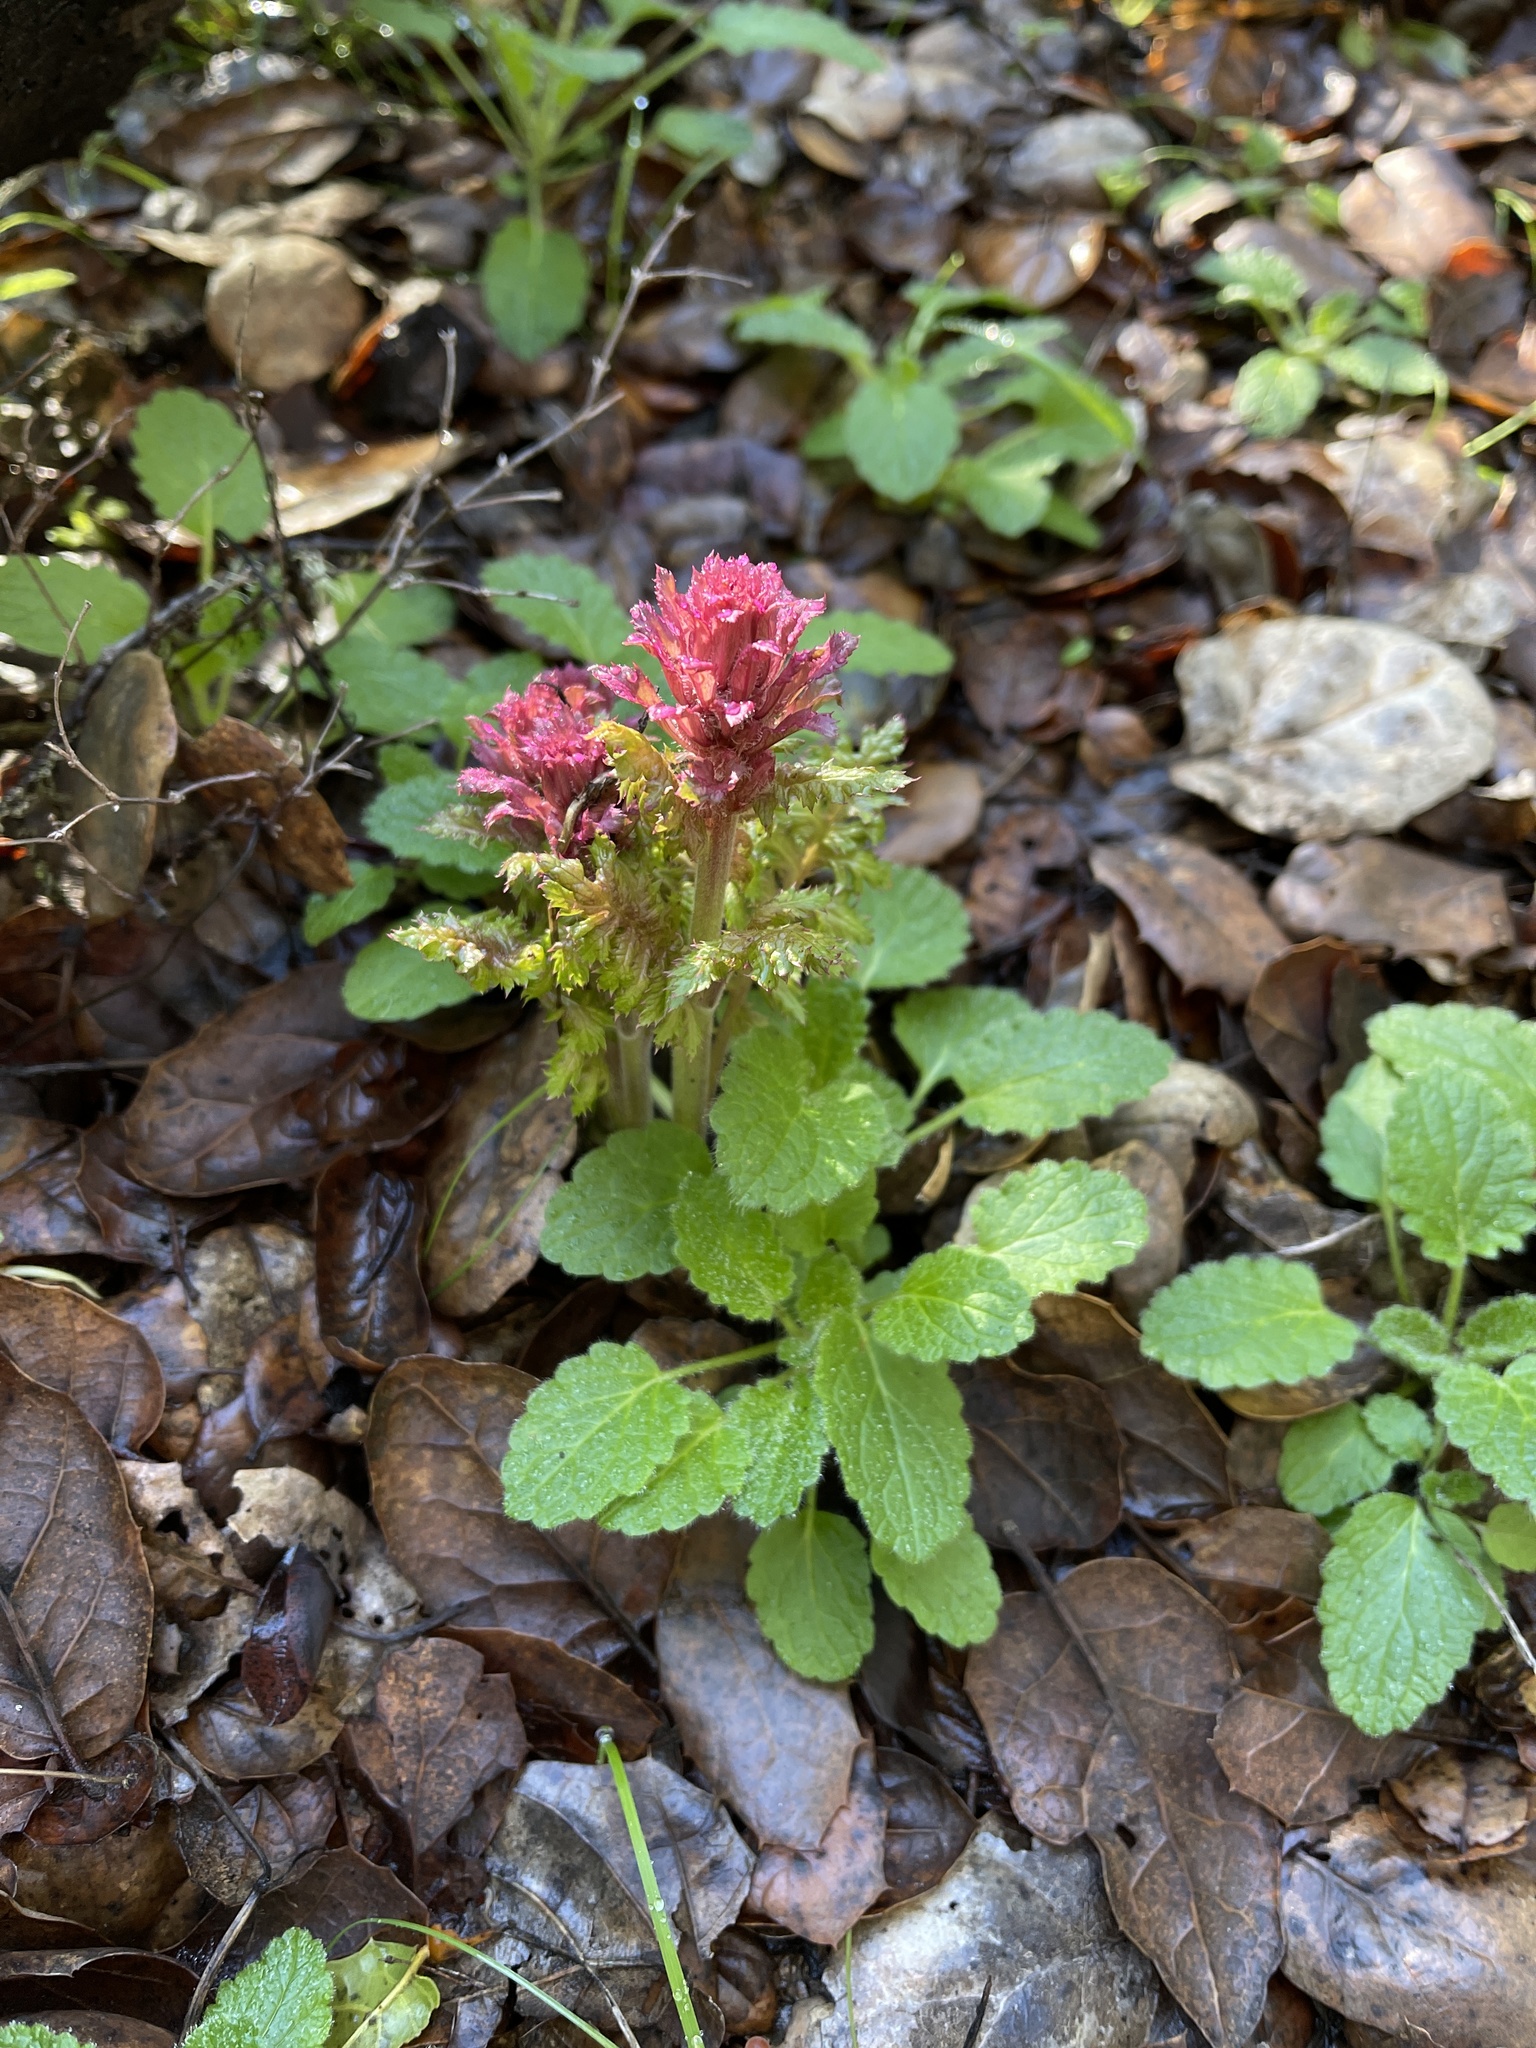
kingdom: Plantae
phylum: Tracheophyta
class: Magnoliopsida
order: Lamiales
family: Orobanchaceae
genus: Pedicularis
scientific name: Pedicularis densiflora
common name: Indian warrior
